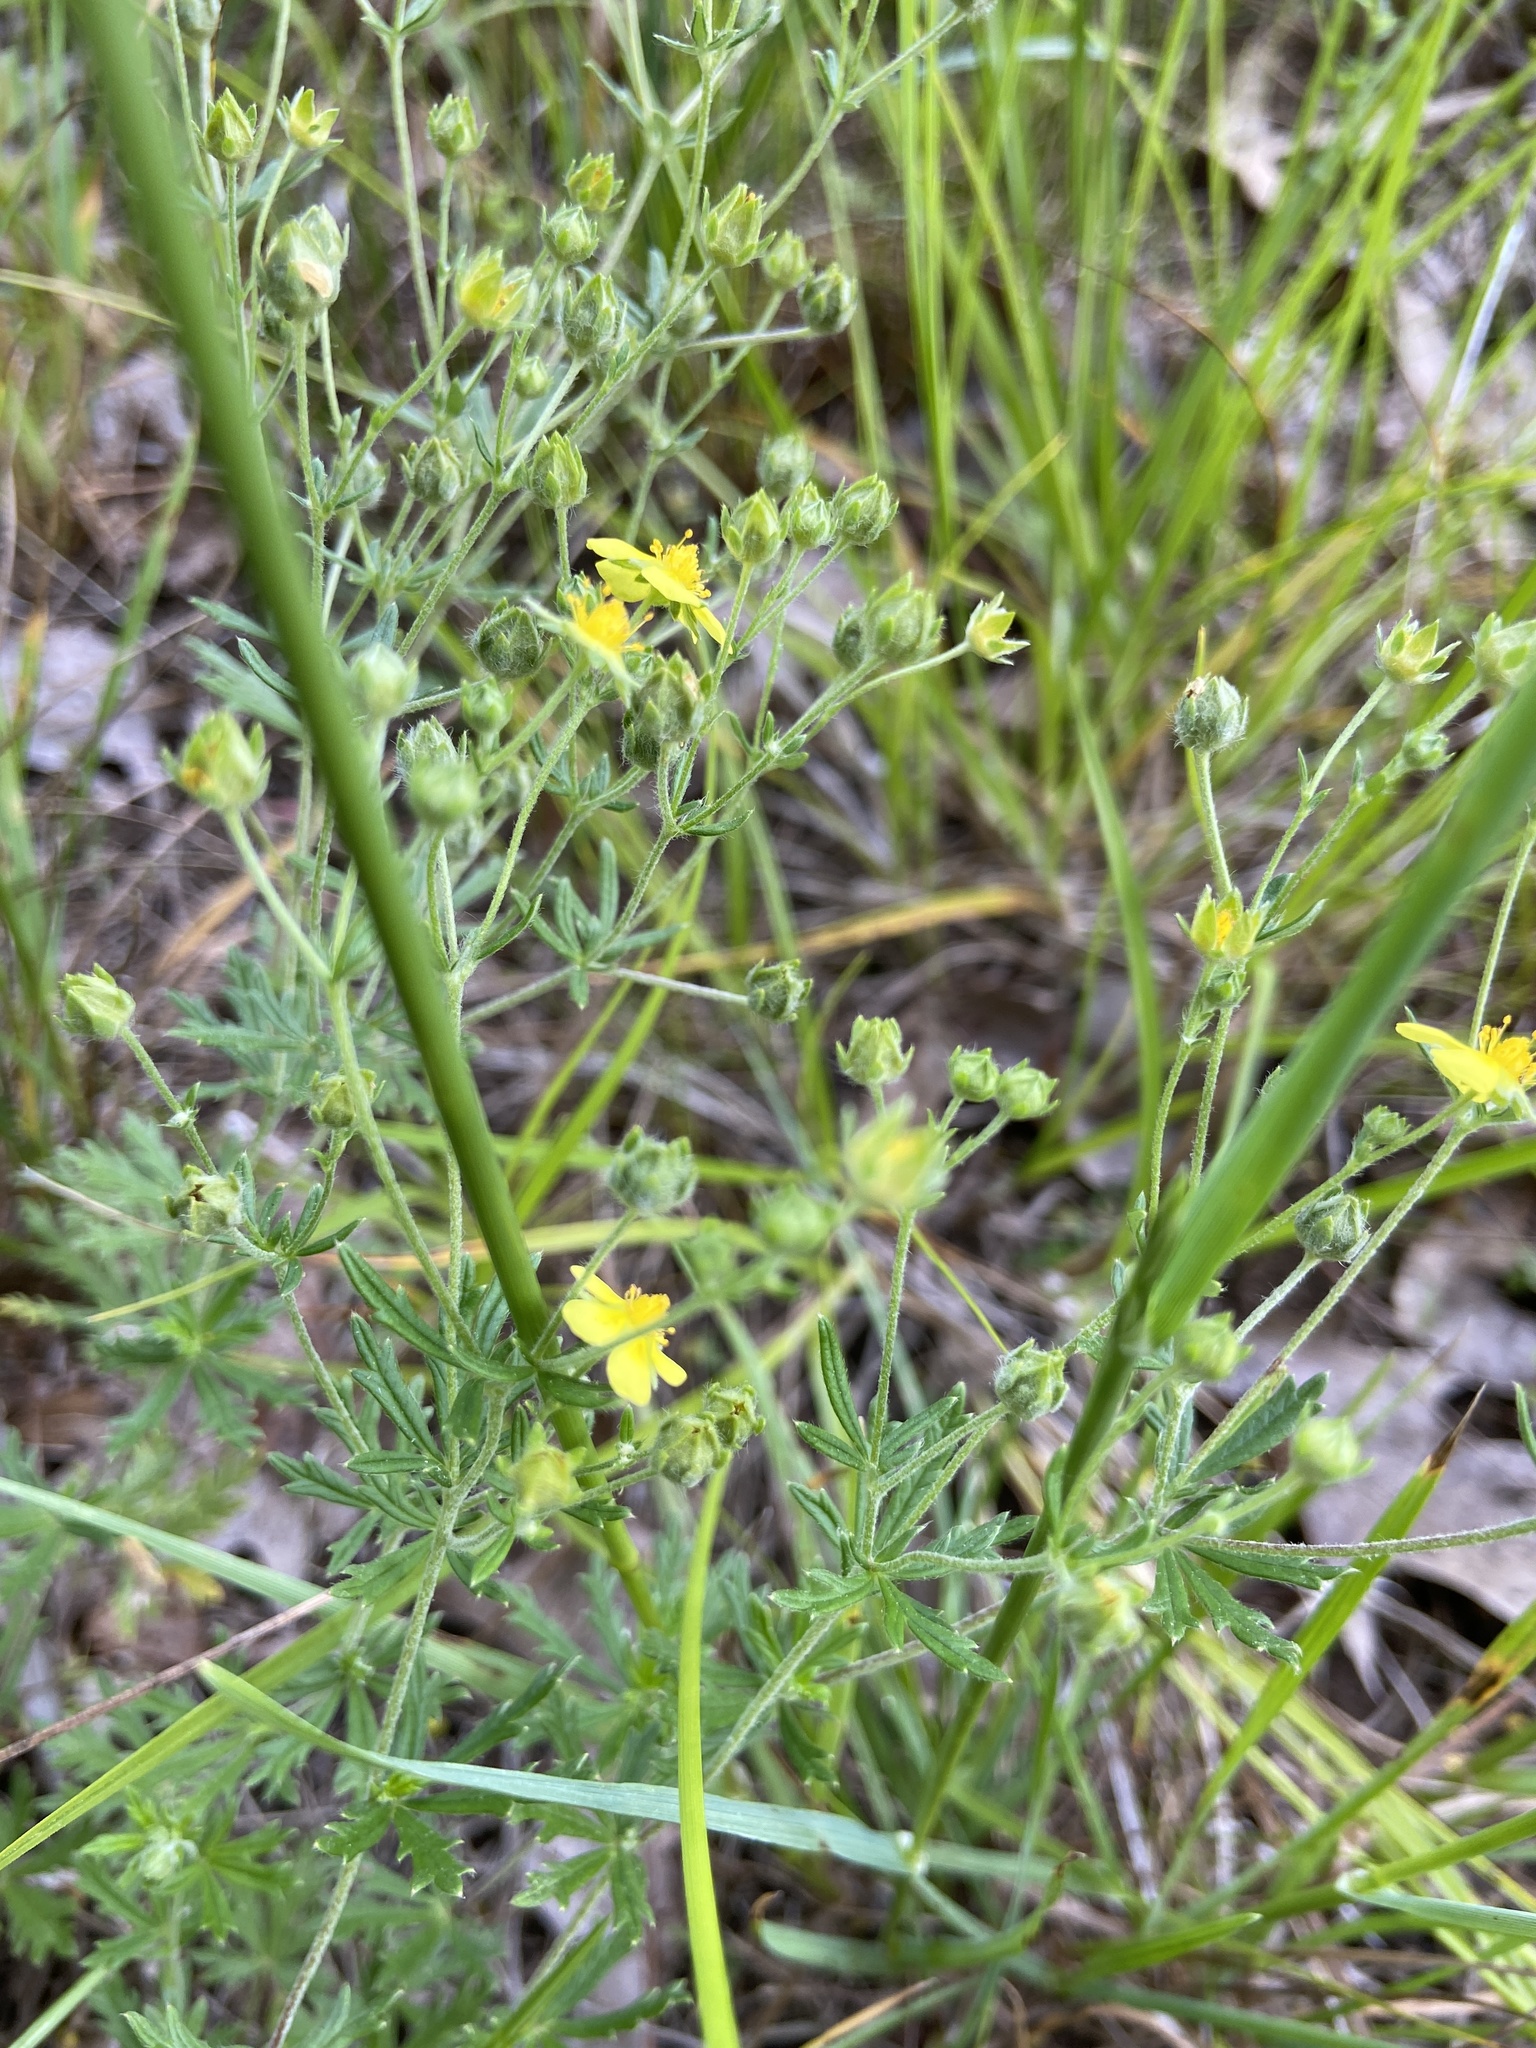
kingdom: Plantae
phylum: Tracheophyta
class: Magnoliopsida
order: Rosales
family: Rosaceae
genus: Potentilla
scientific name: Potentilla argentea
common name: Hoary cinquefoil
